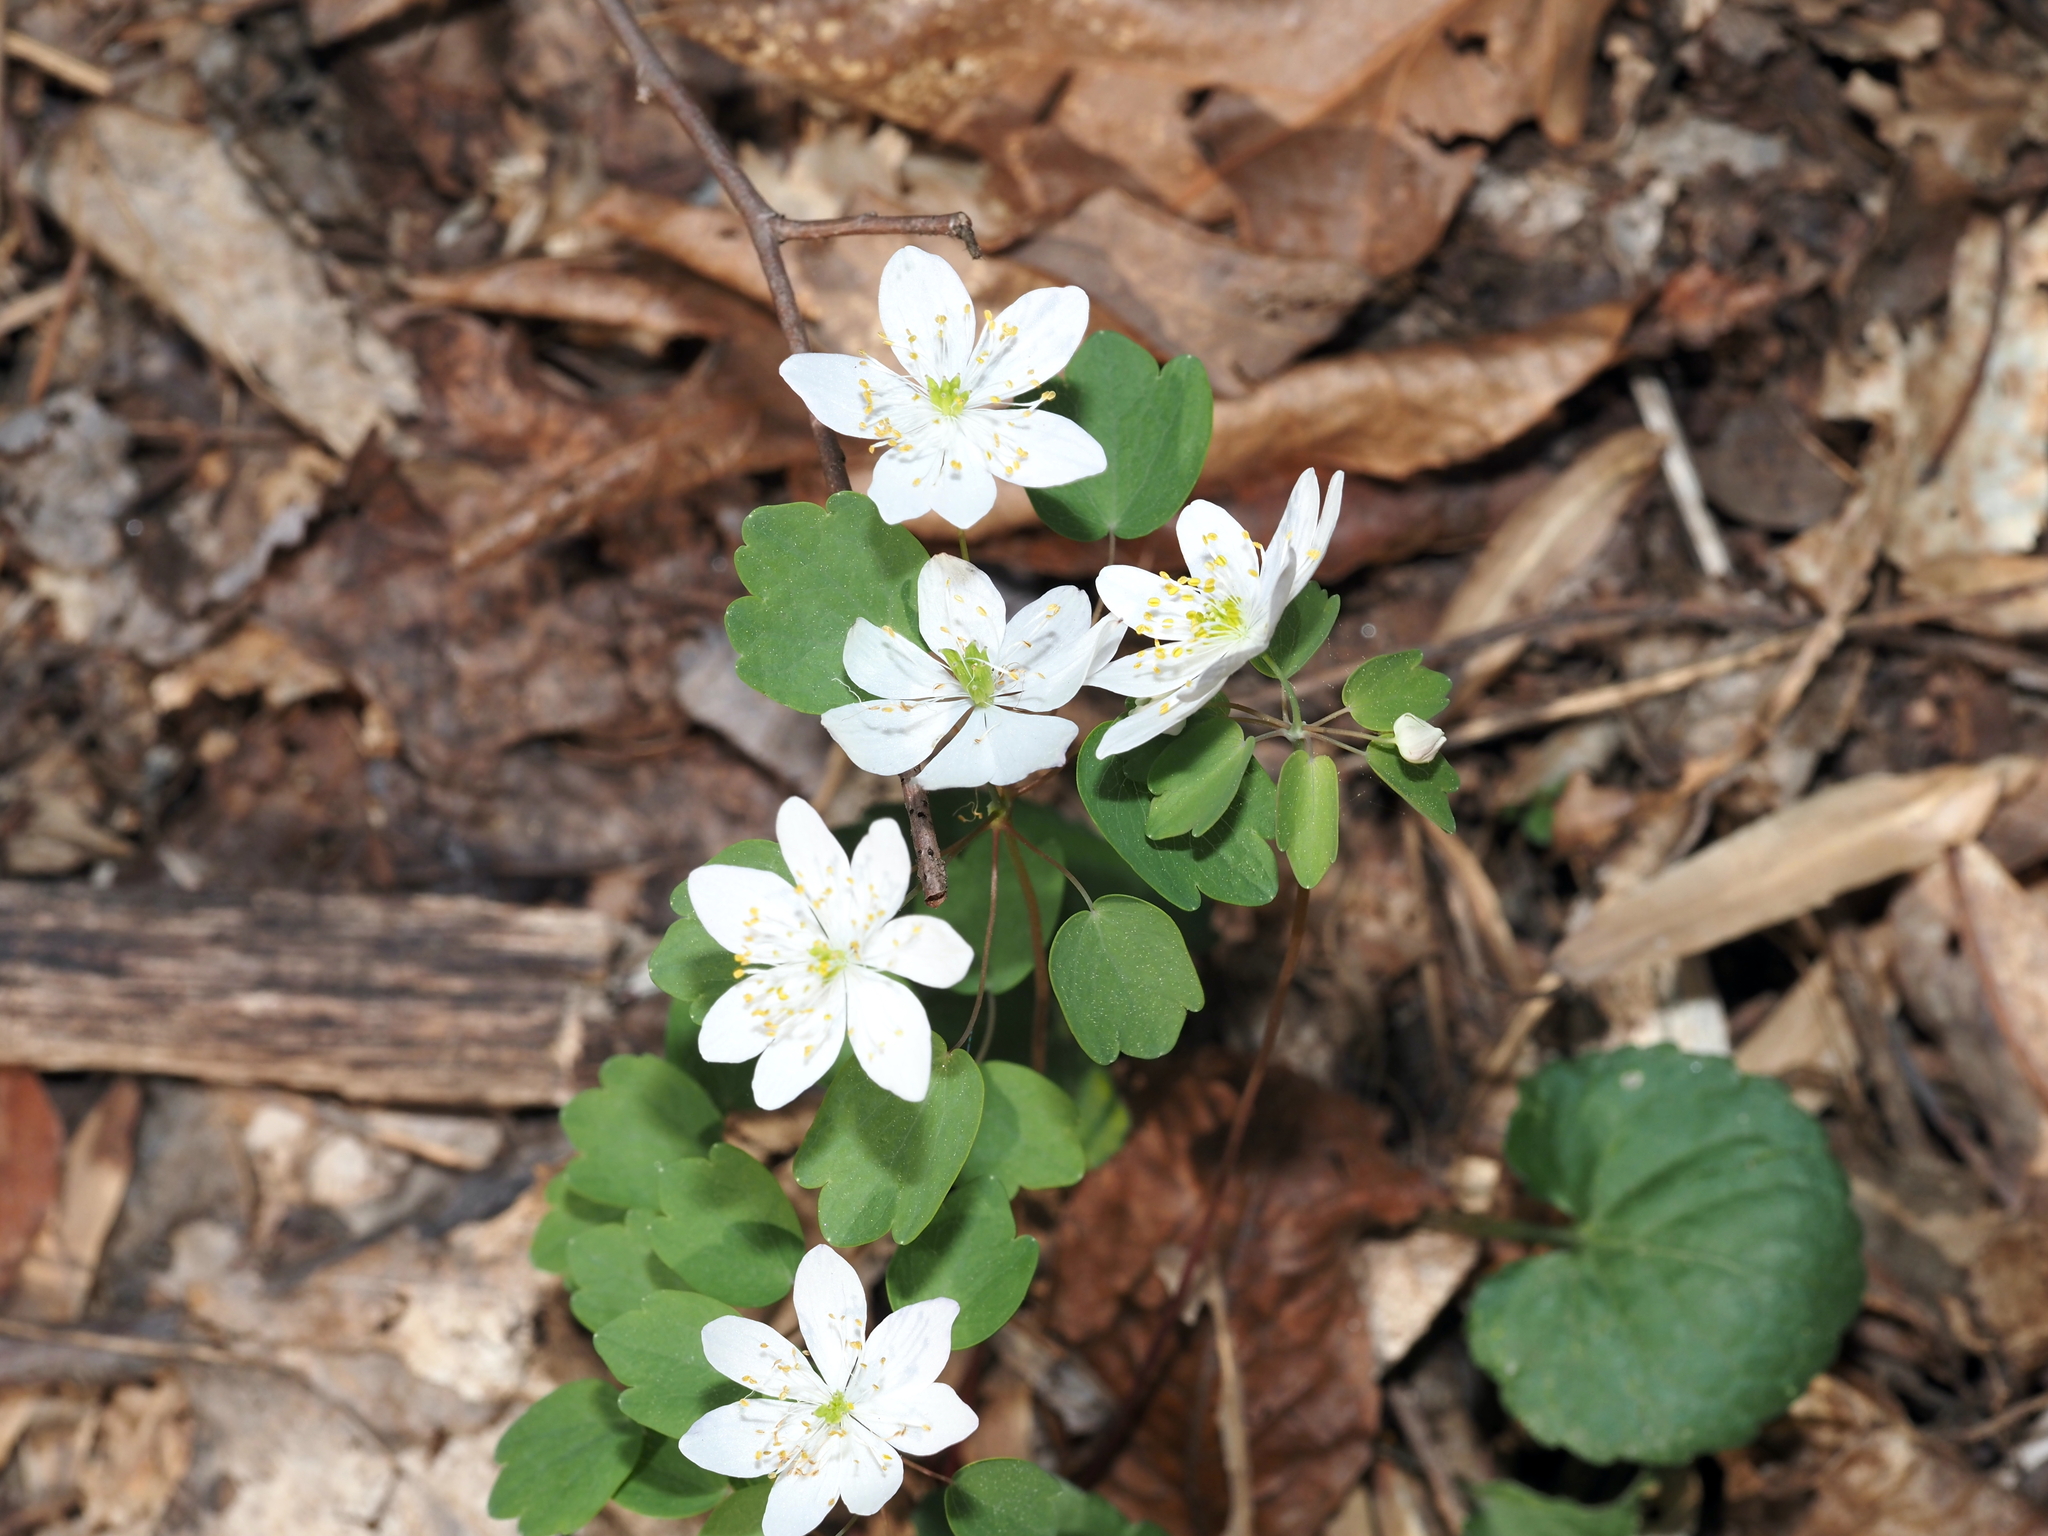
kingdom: Plantae
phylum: Tracheophyta
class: Magnoliopsida
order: Ranunculales
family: Ranunculaceae
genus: Thalictrum
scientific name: Thalictrum thalictroides
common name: Rue-anemone
